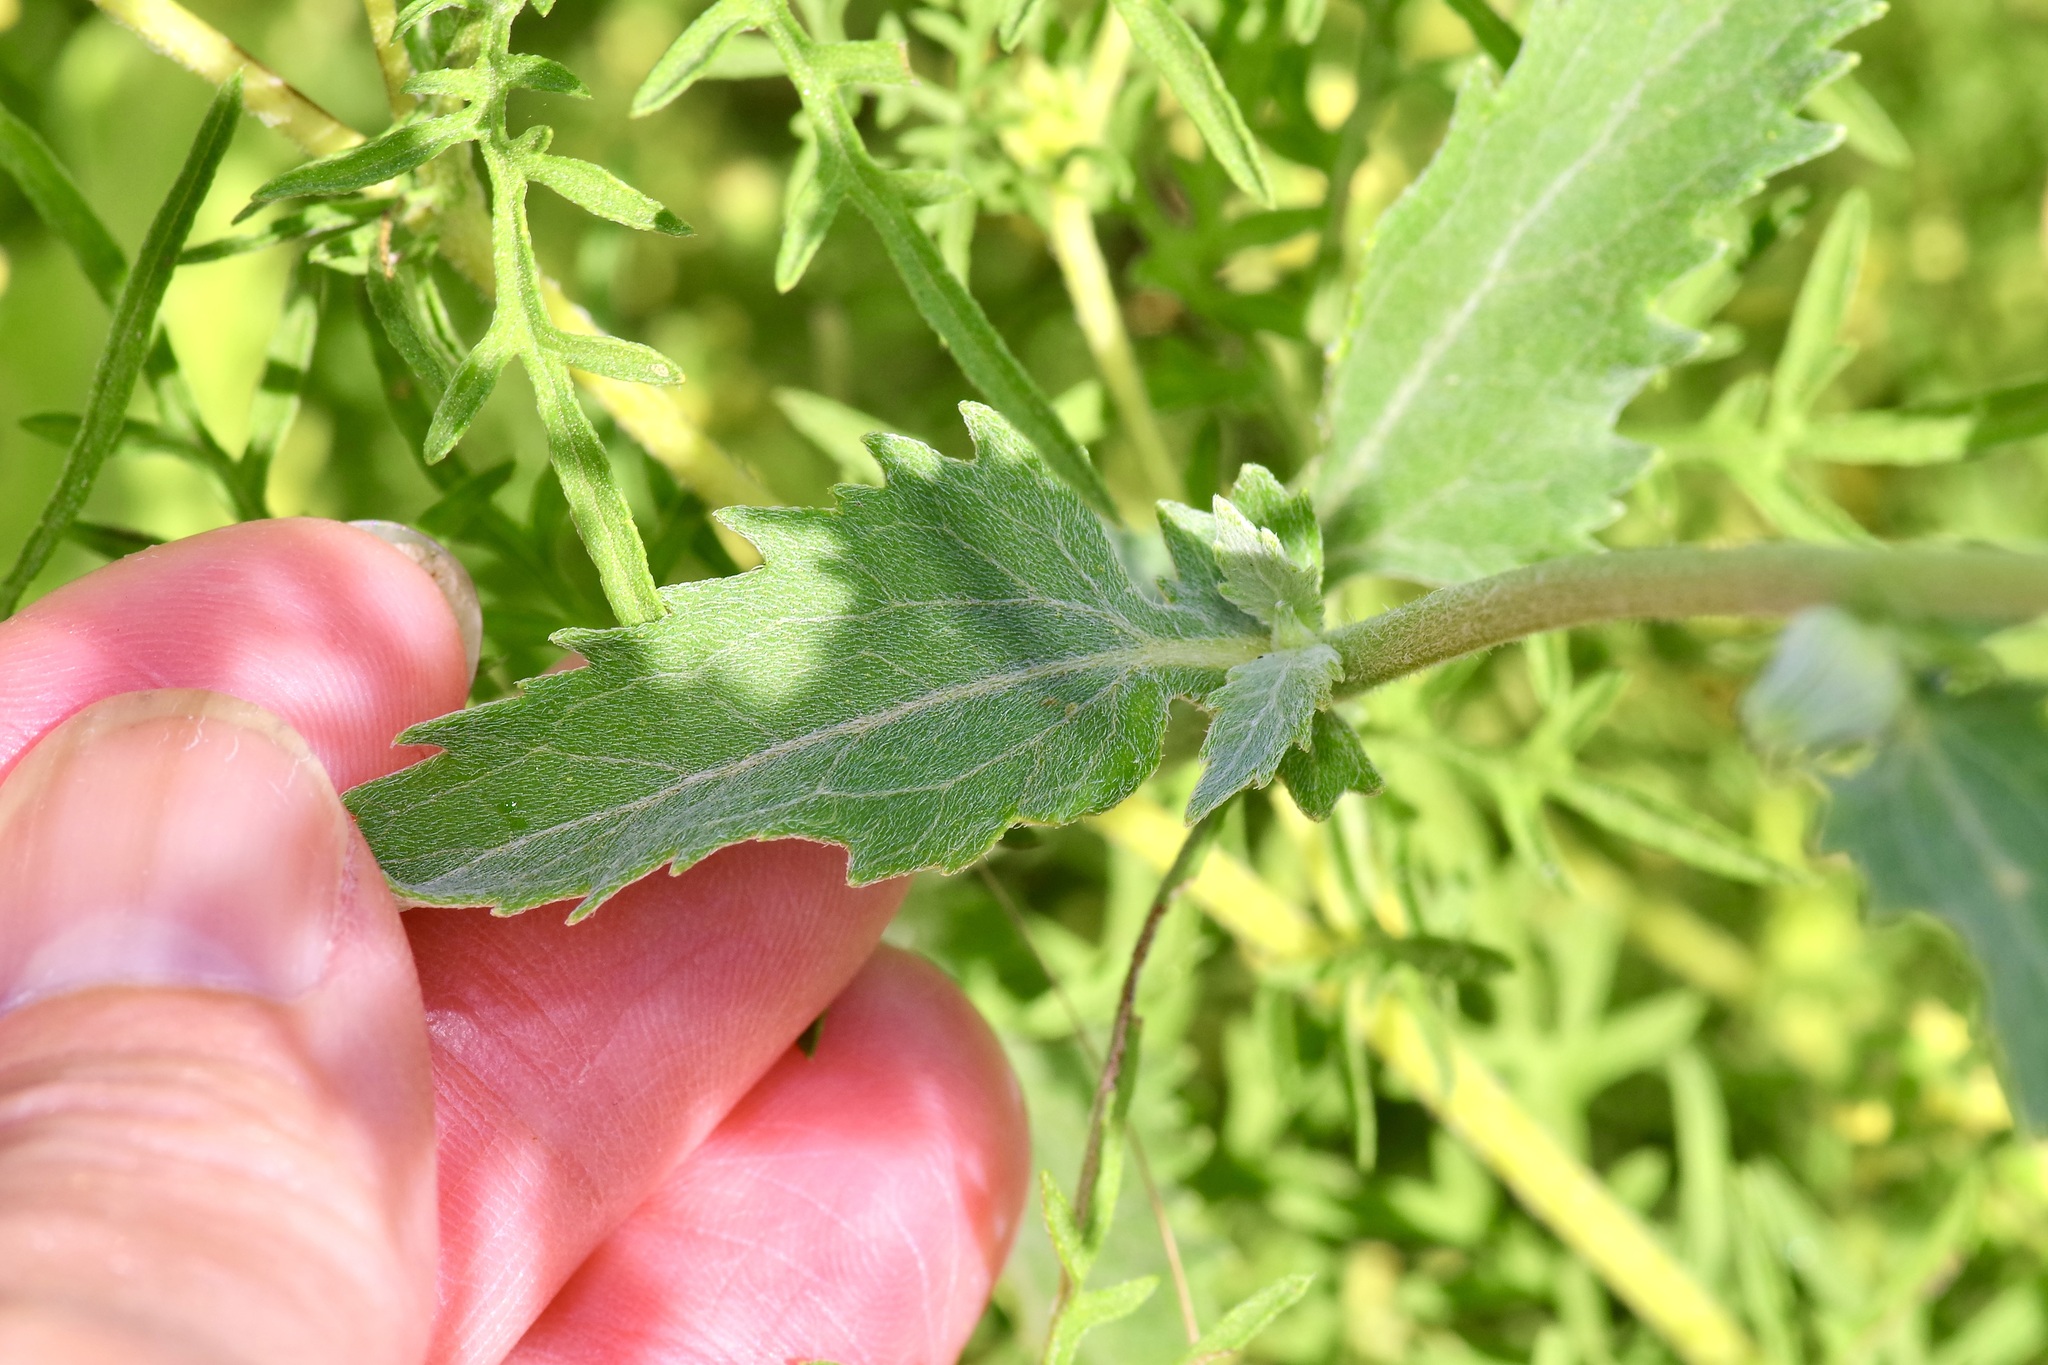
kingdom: Plantae
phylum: Tracheophyta
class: Magnoliopsida
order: Asterales
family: Asteraceae
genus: Verbesina
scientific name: Verbesina encelioides
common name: Golden crownbeard
